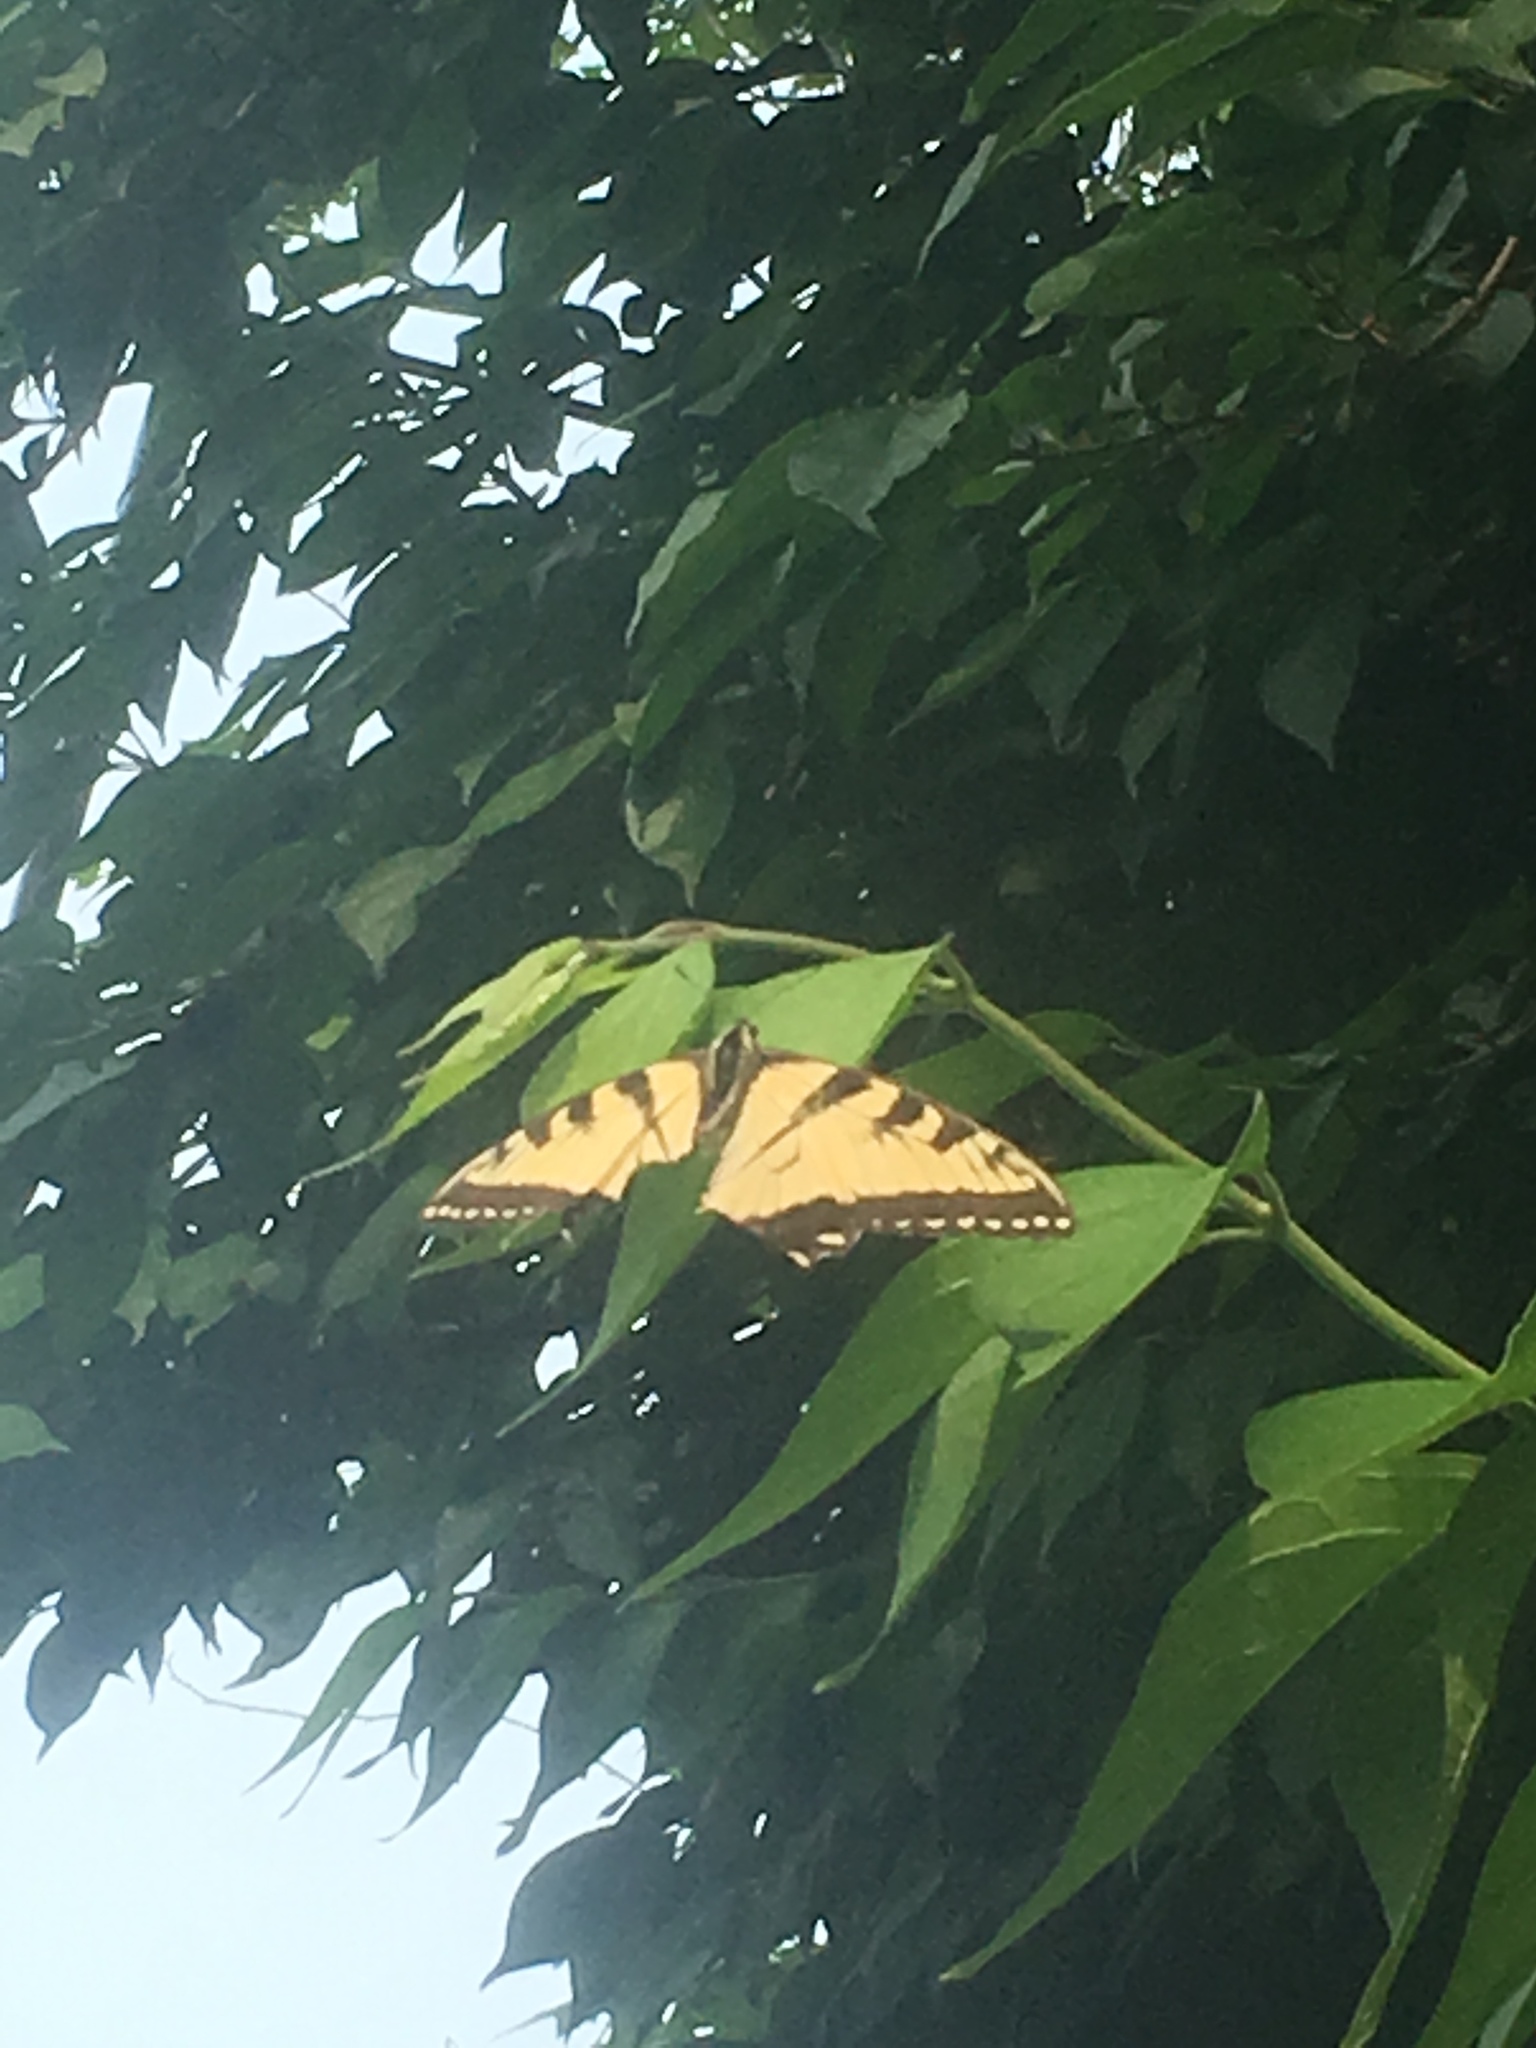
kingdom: Animalia
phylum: Arthropoda
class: Insecta
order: Lepidoptera
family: Papilionidae
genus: Papilio
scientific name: Papilio glaucus
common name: Tiger swallowtail
